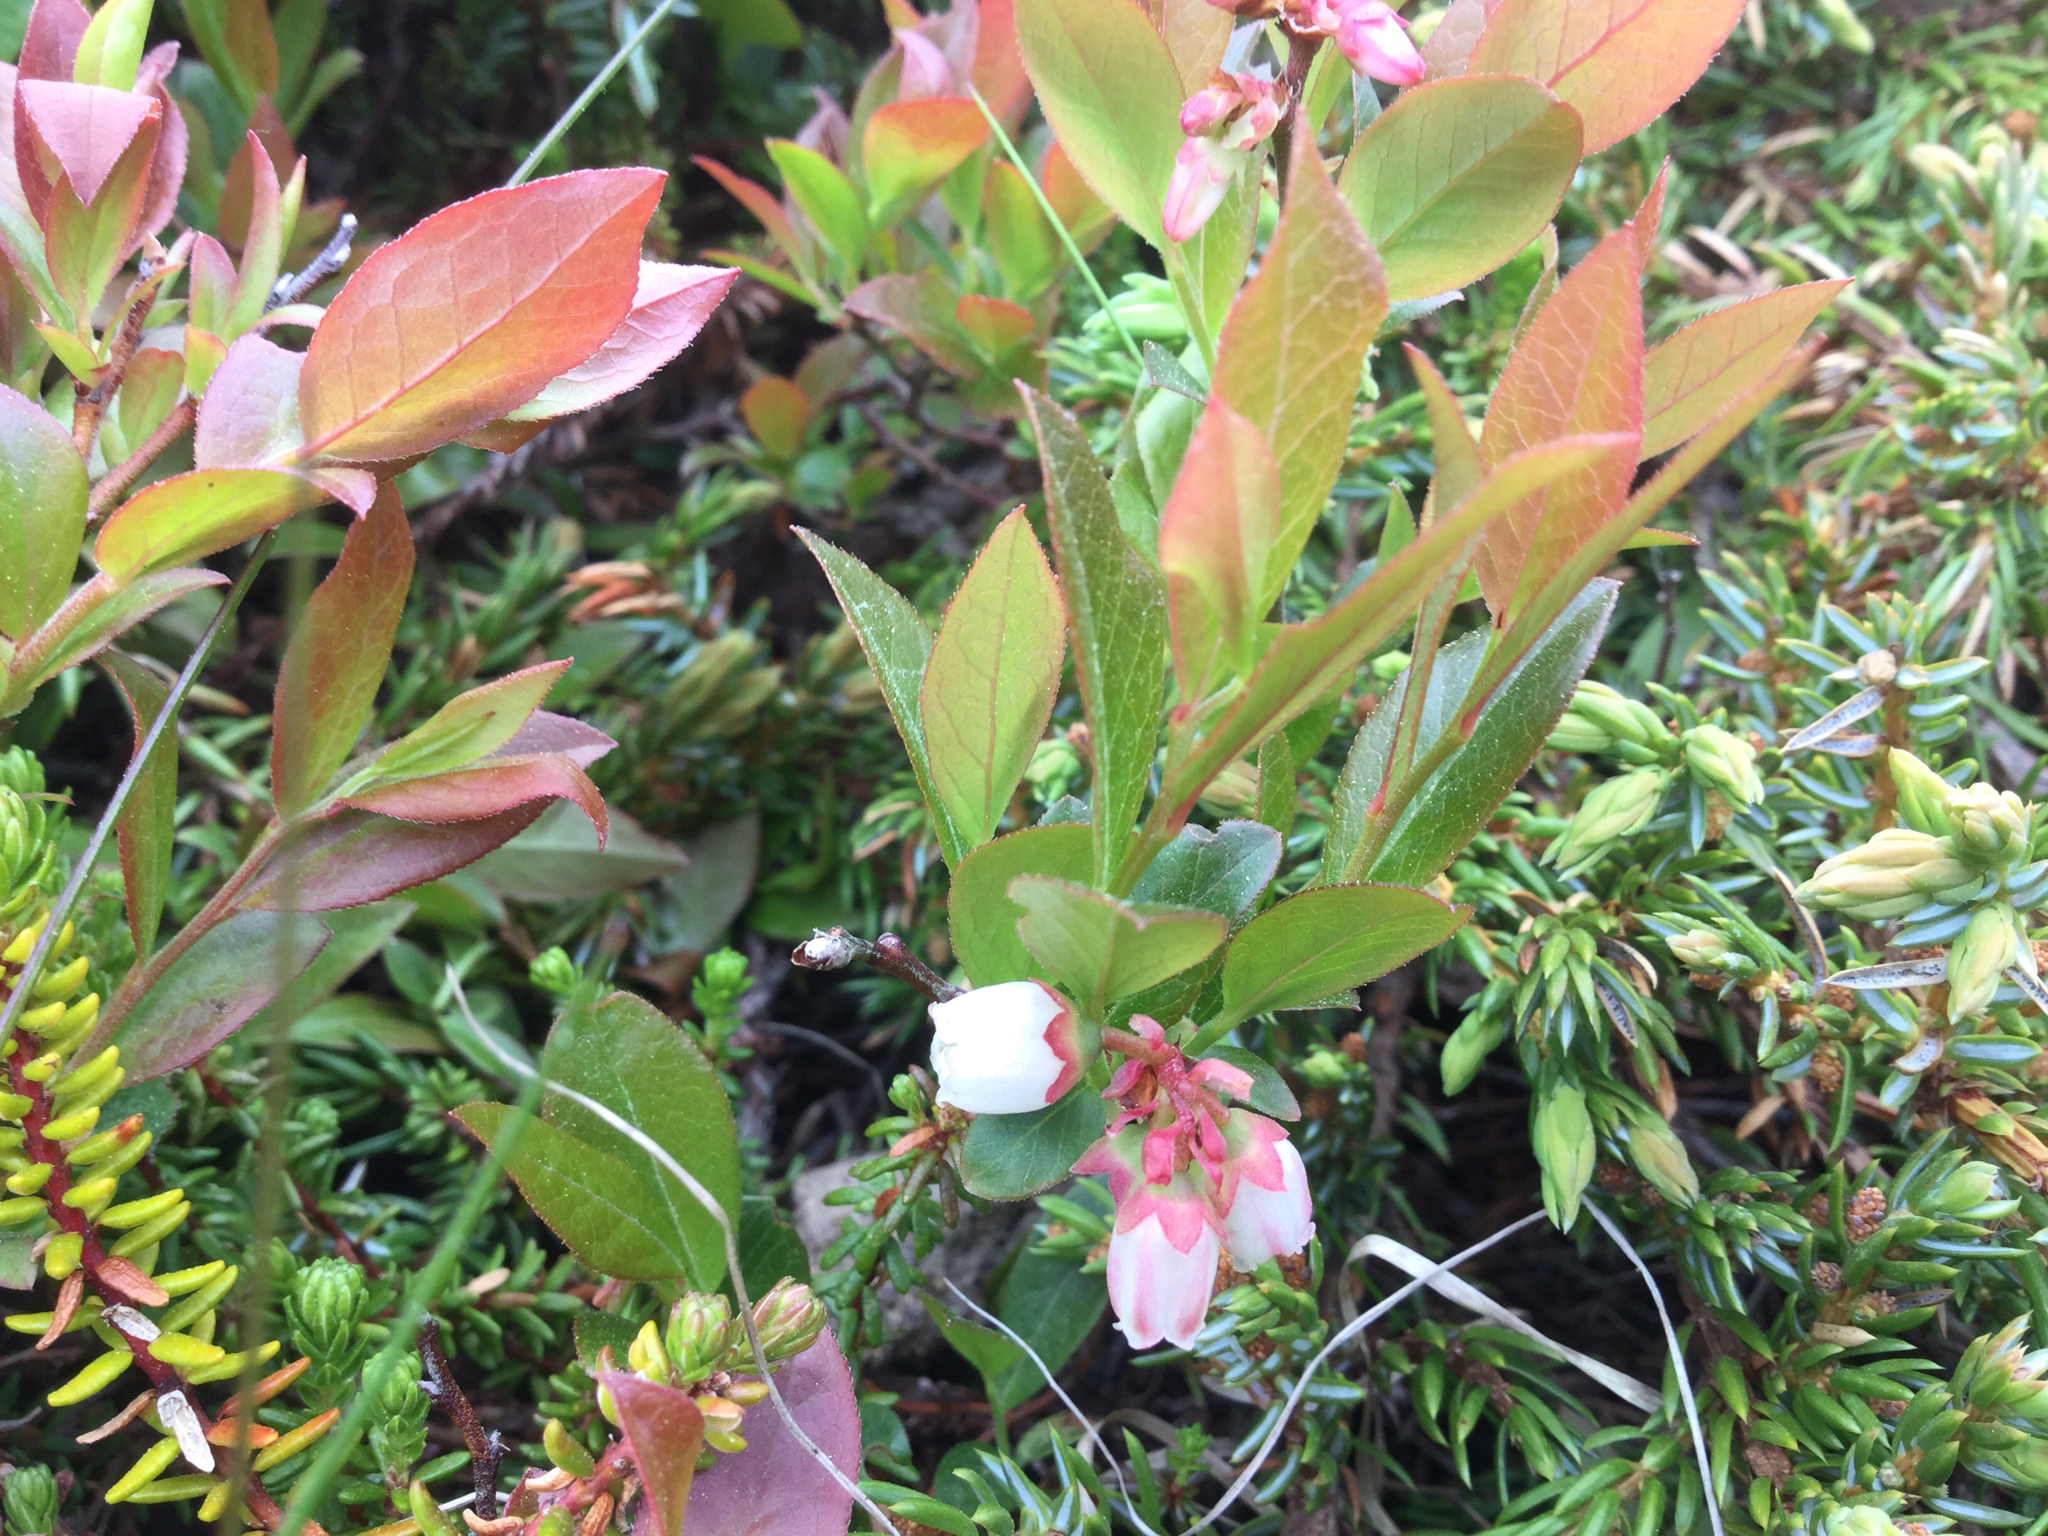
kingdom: Plantae
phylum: Tracheophyta
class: Magnoliopsida
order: Ericales
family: Ericaceae
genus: Vaccinium
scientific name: Vaccinium angustifolium
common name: Early lowbush blueberry
